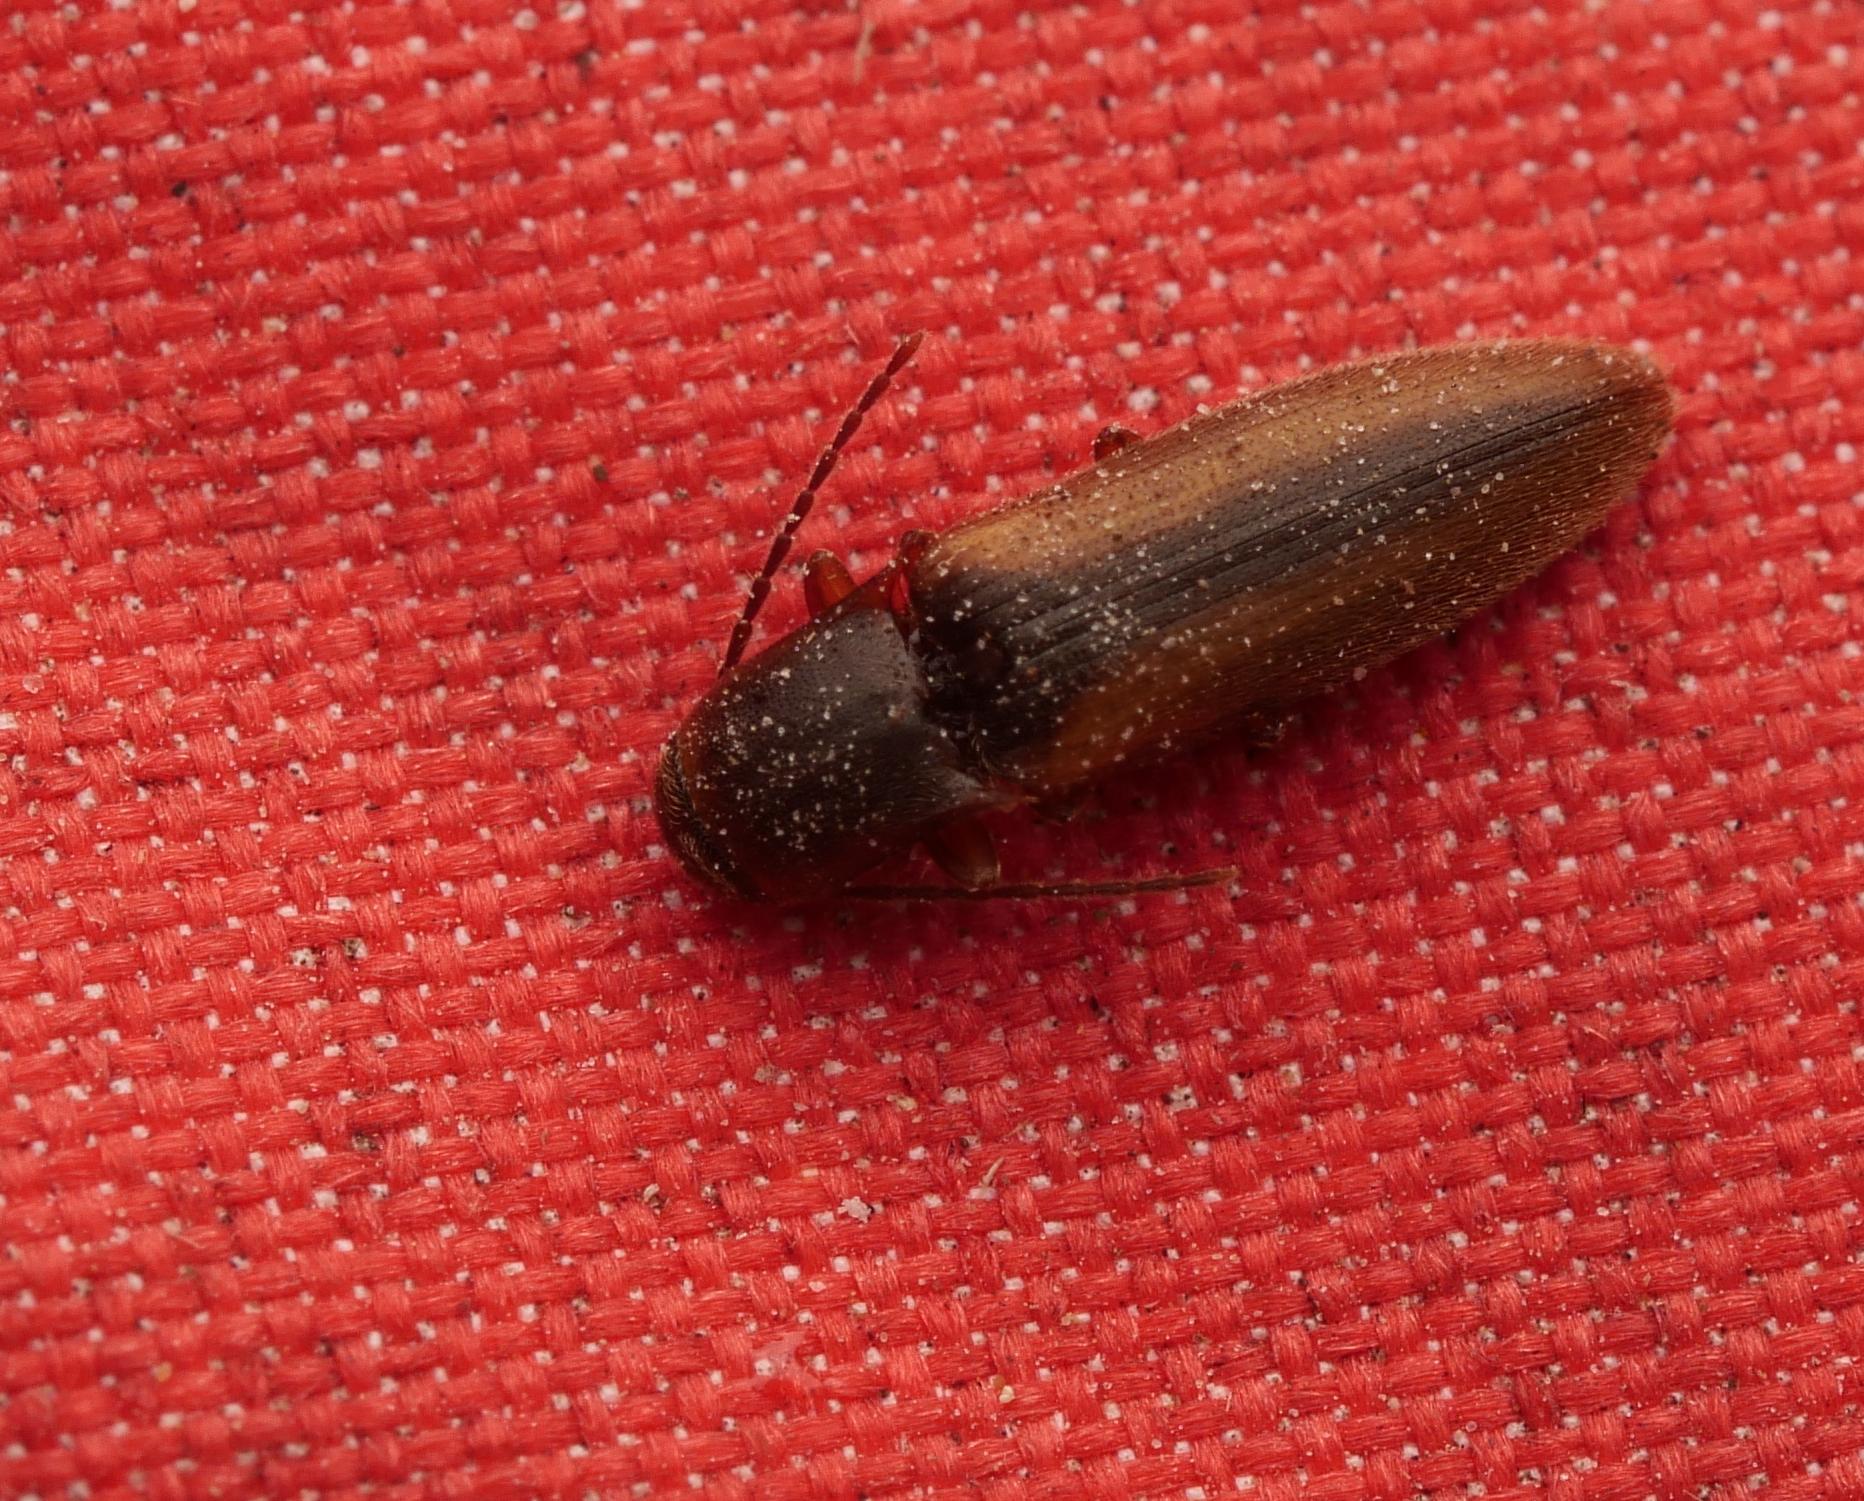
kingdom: Animalia
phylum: Arthropoda
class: Insecta
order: Coleoptera
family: Elateridae
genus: Dalopius
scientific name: Dalopius marginatus
